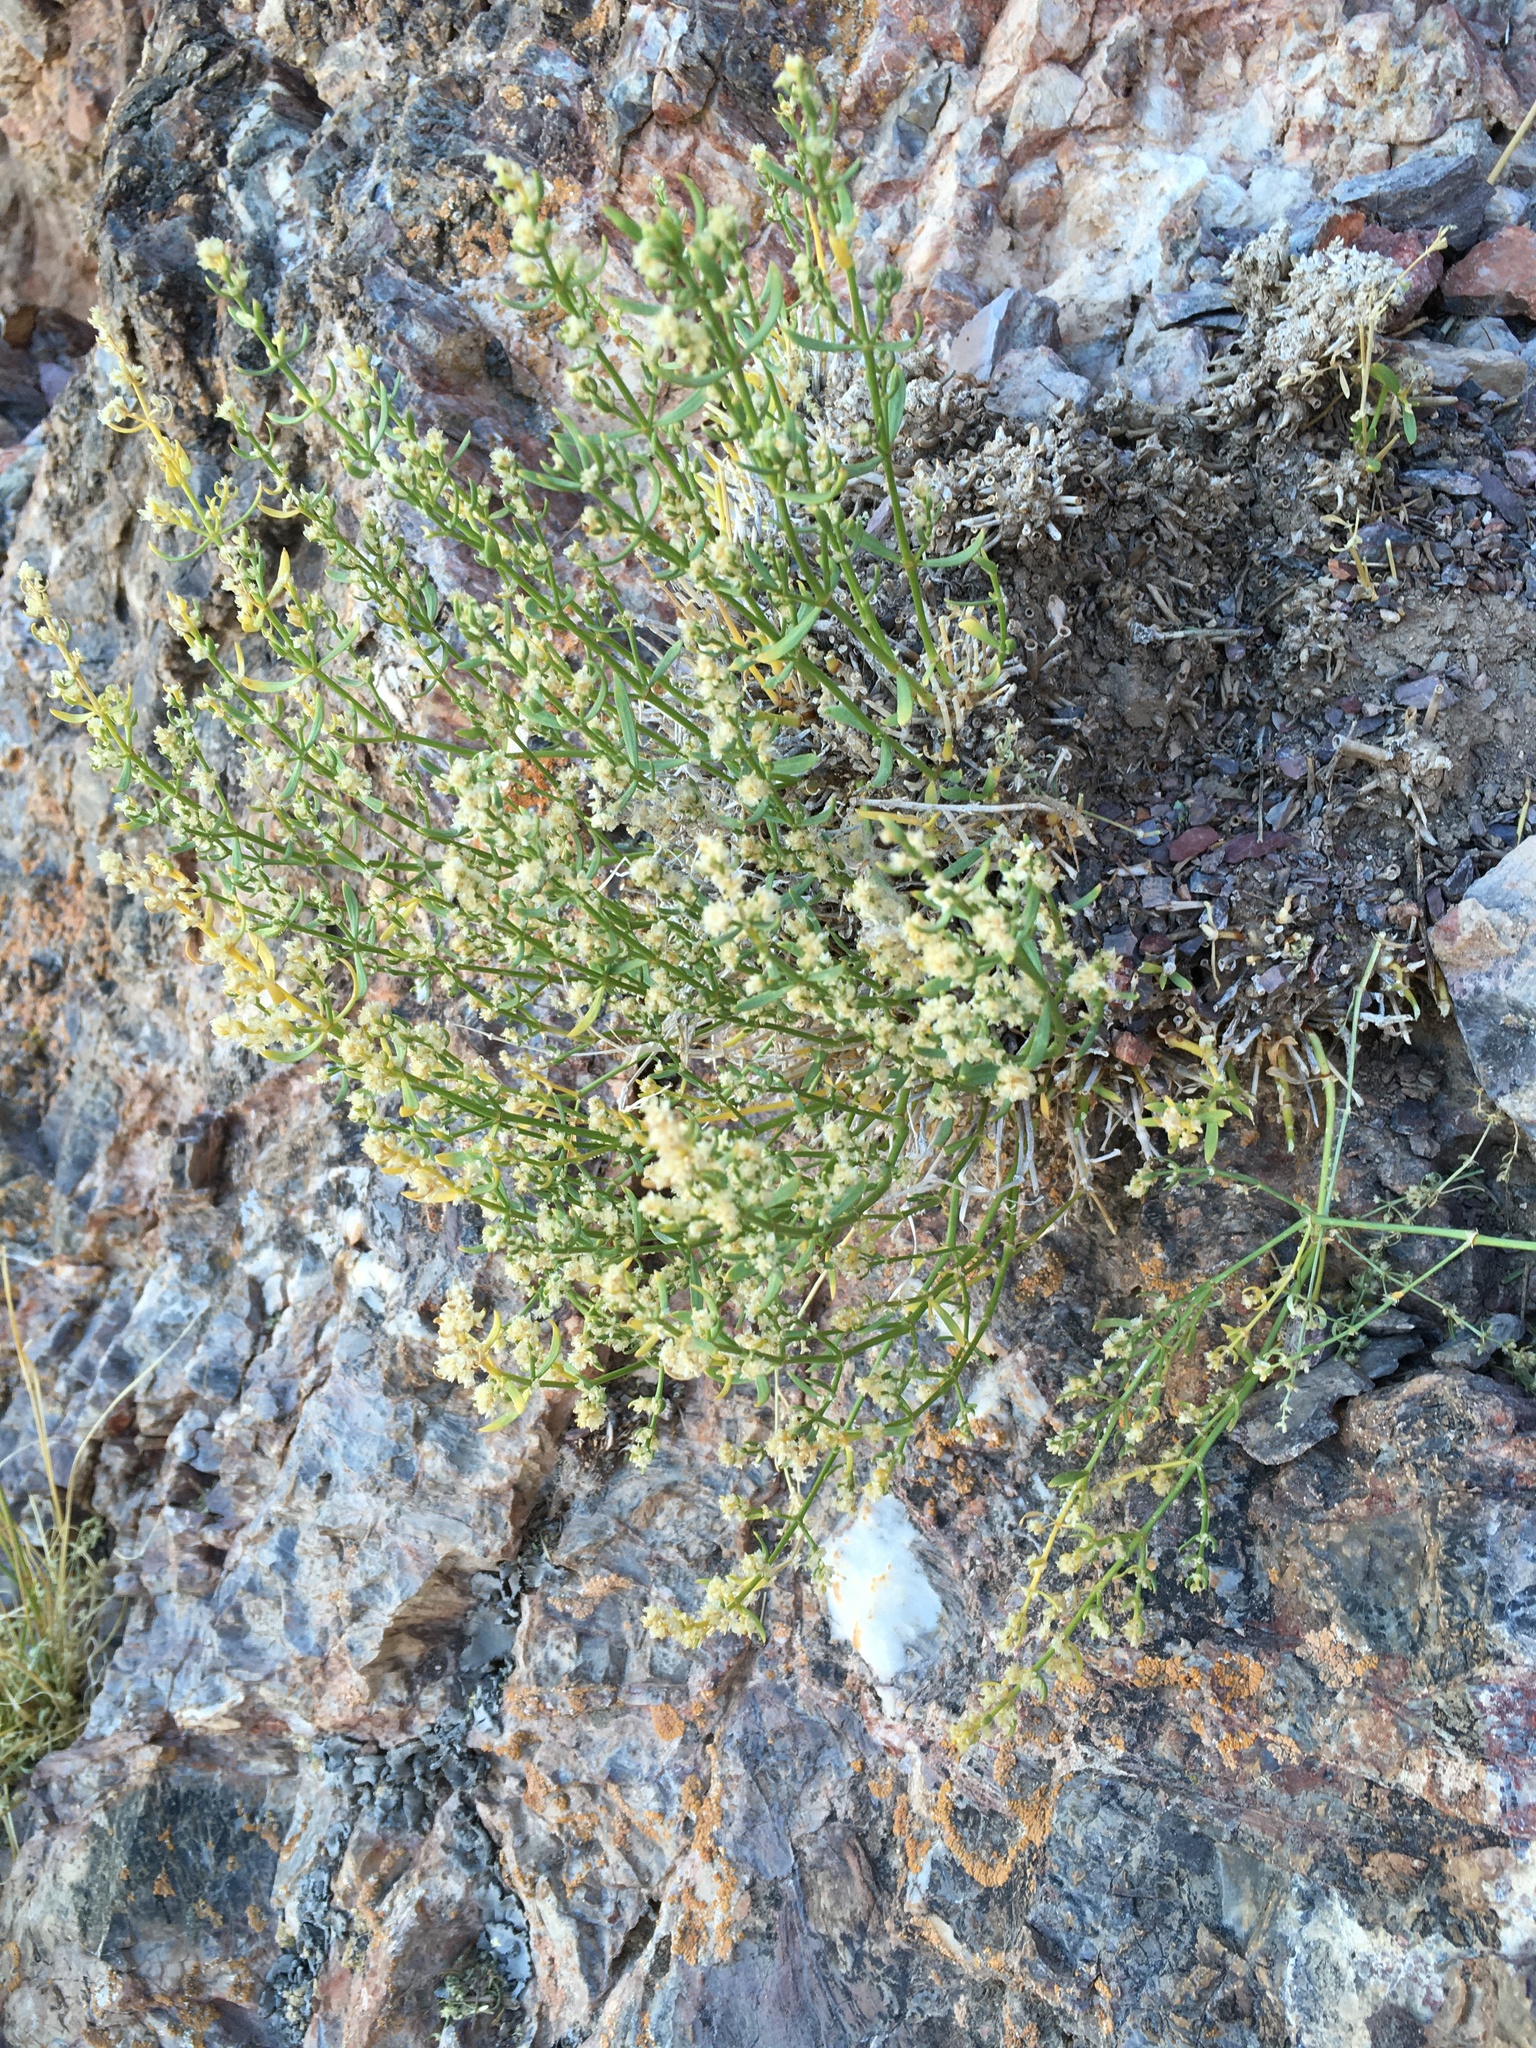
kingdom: Plantae
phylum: Tracheophyta
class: Magnoliopsida
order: Caryophyllales
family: Caryophyllaceae
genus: Scopulophila
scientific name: Scopulophila rixfordii
